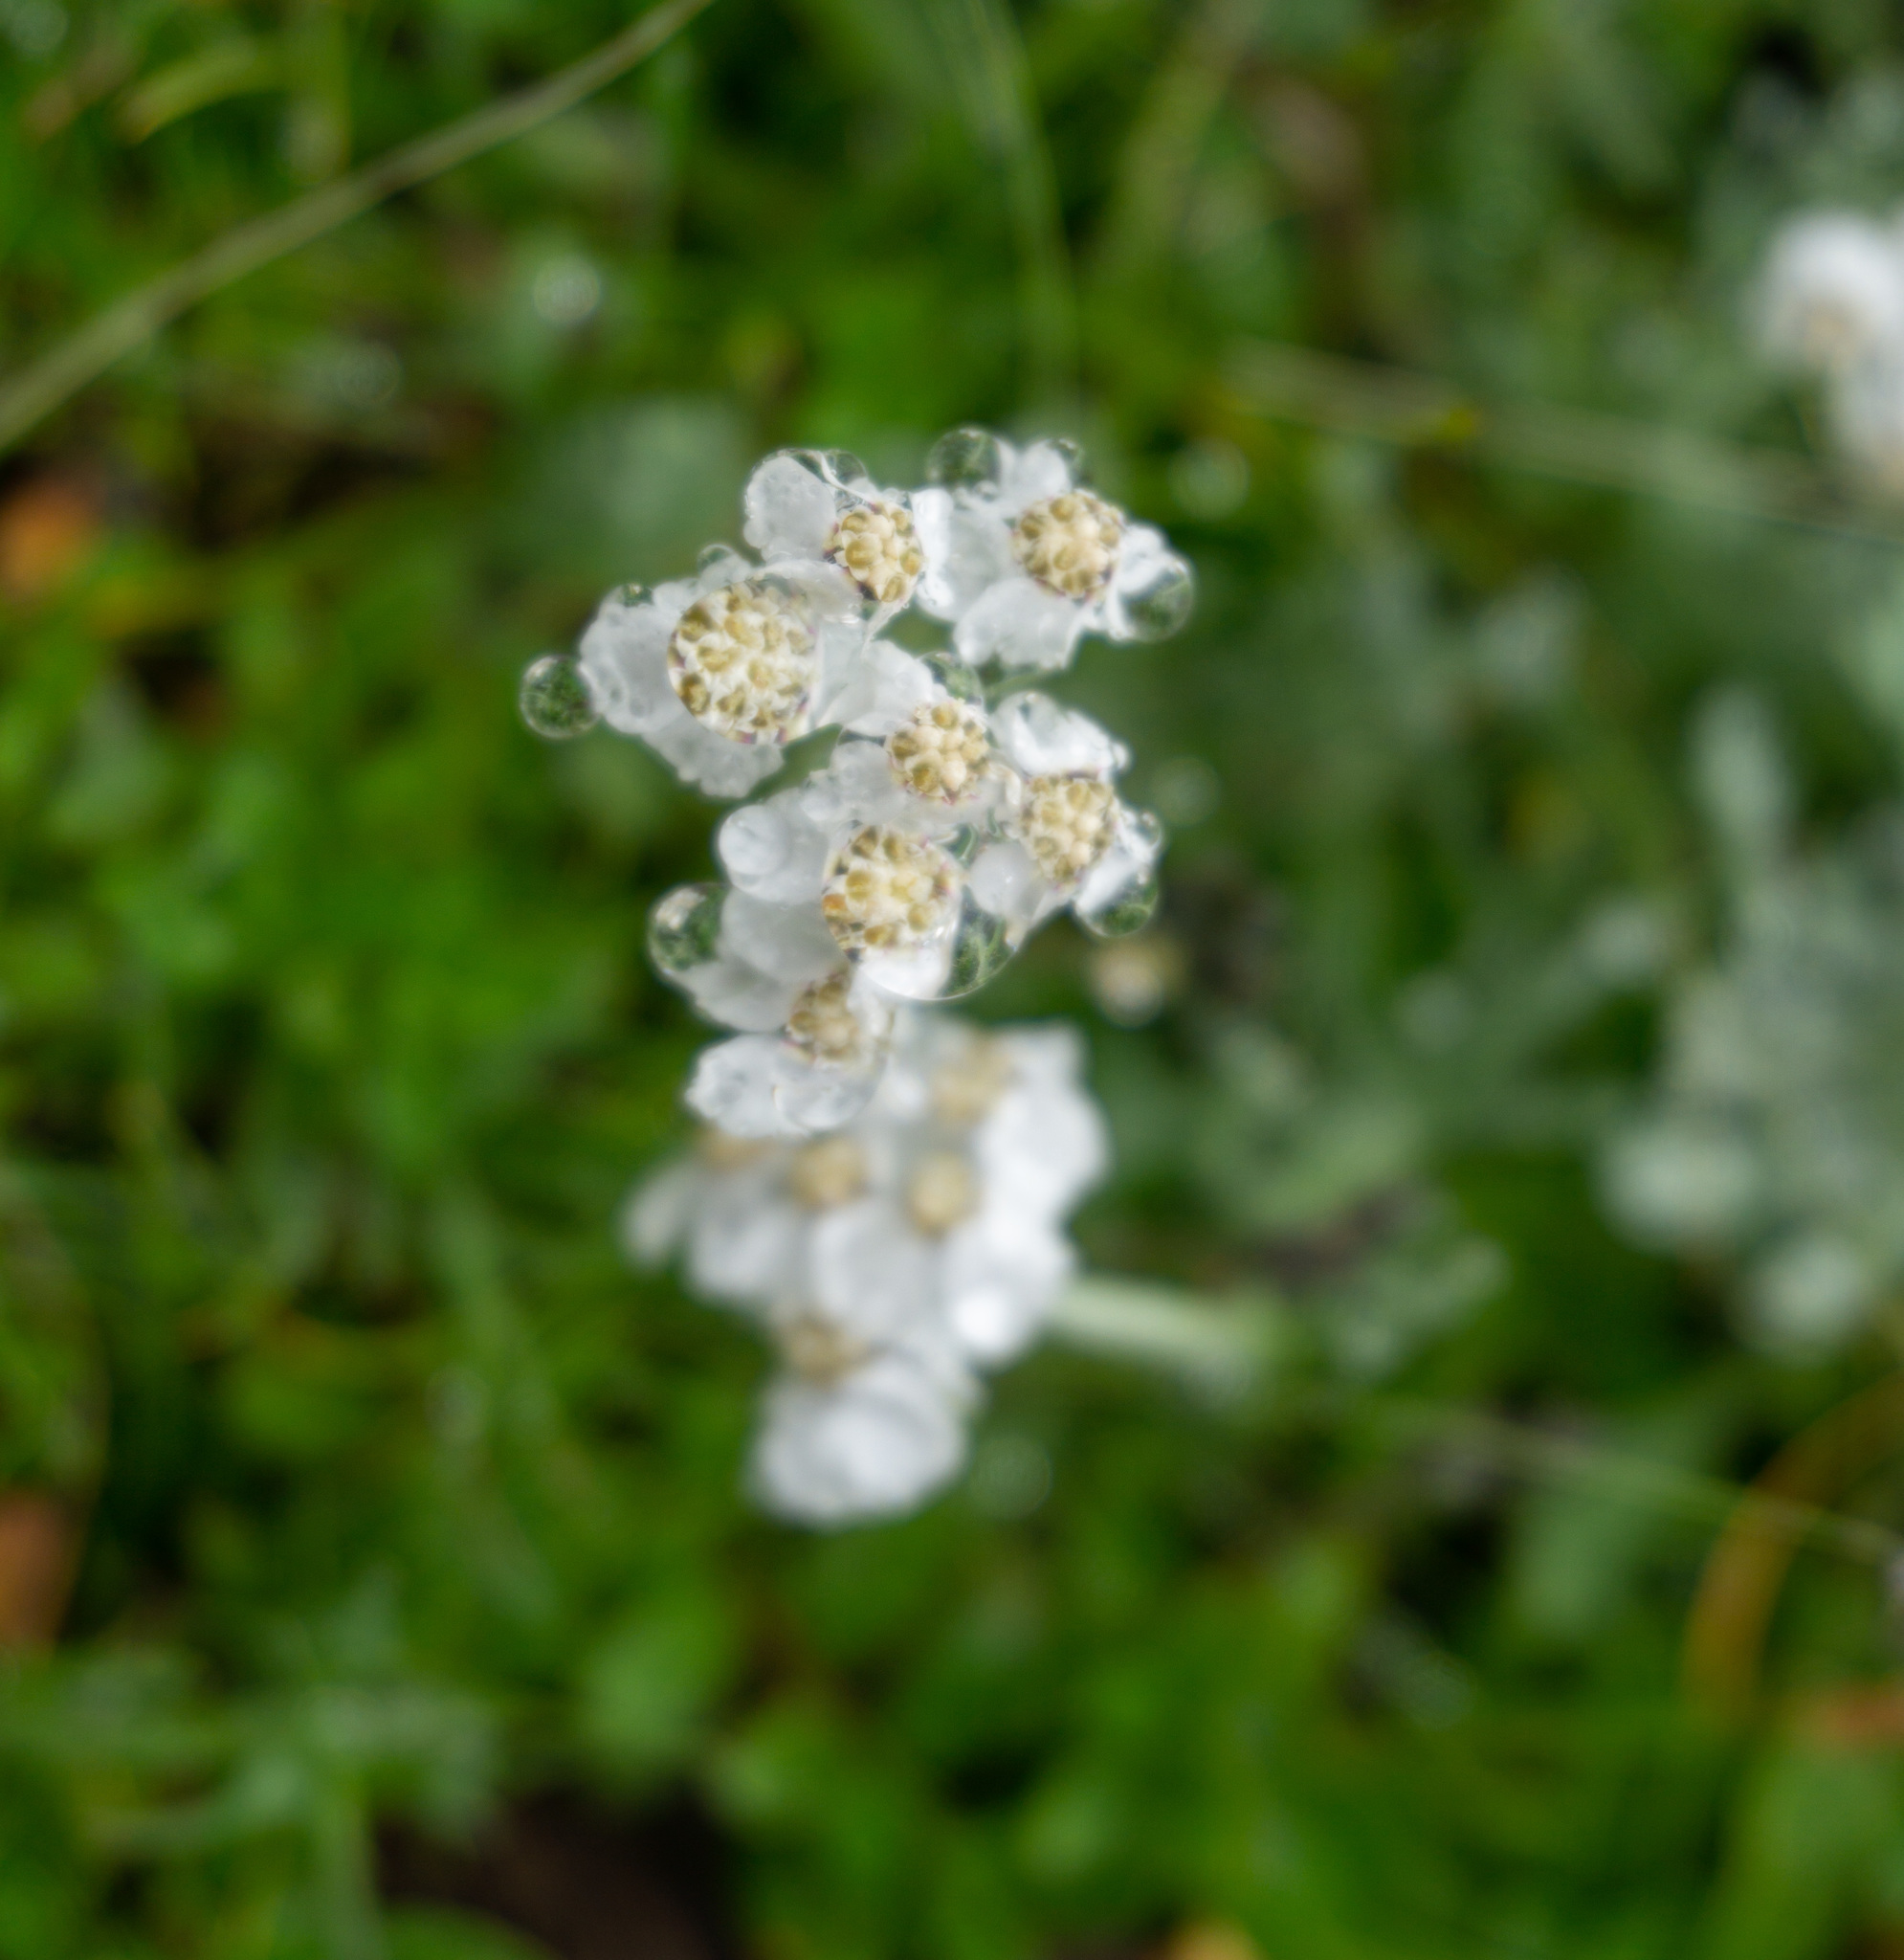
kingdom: Plantae
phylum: Tracheophyta
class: Magnoliopsida
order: Asterales
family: Asteraceae
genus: Achillea
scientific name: Achillea clavennae
